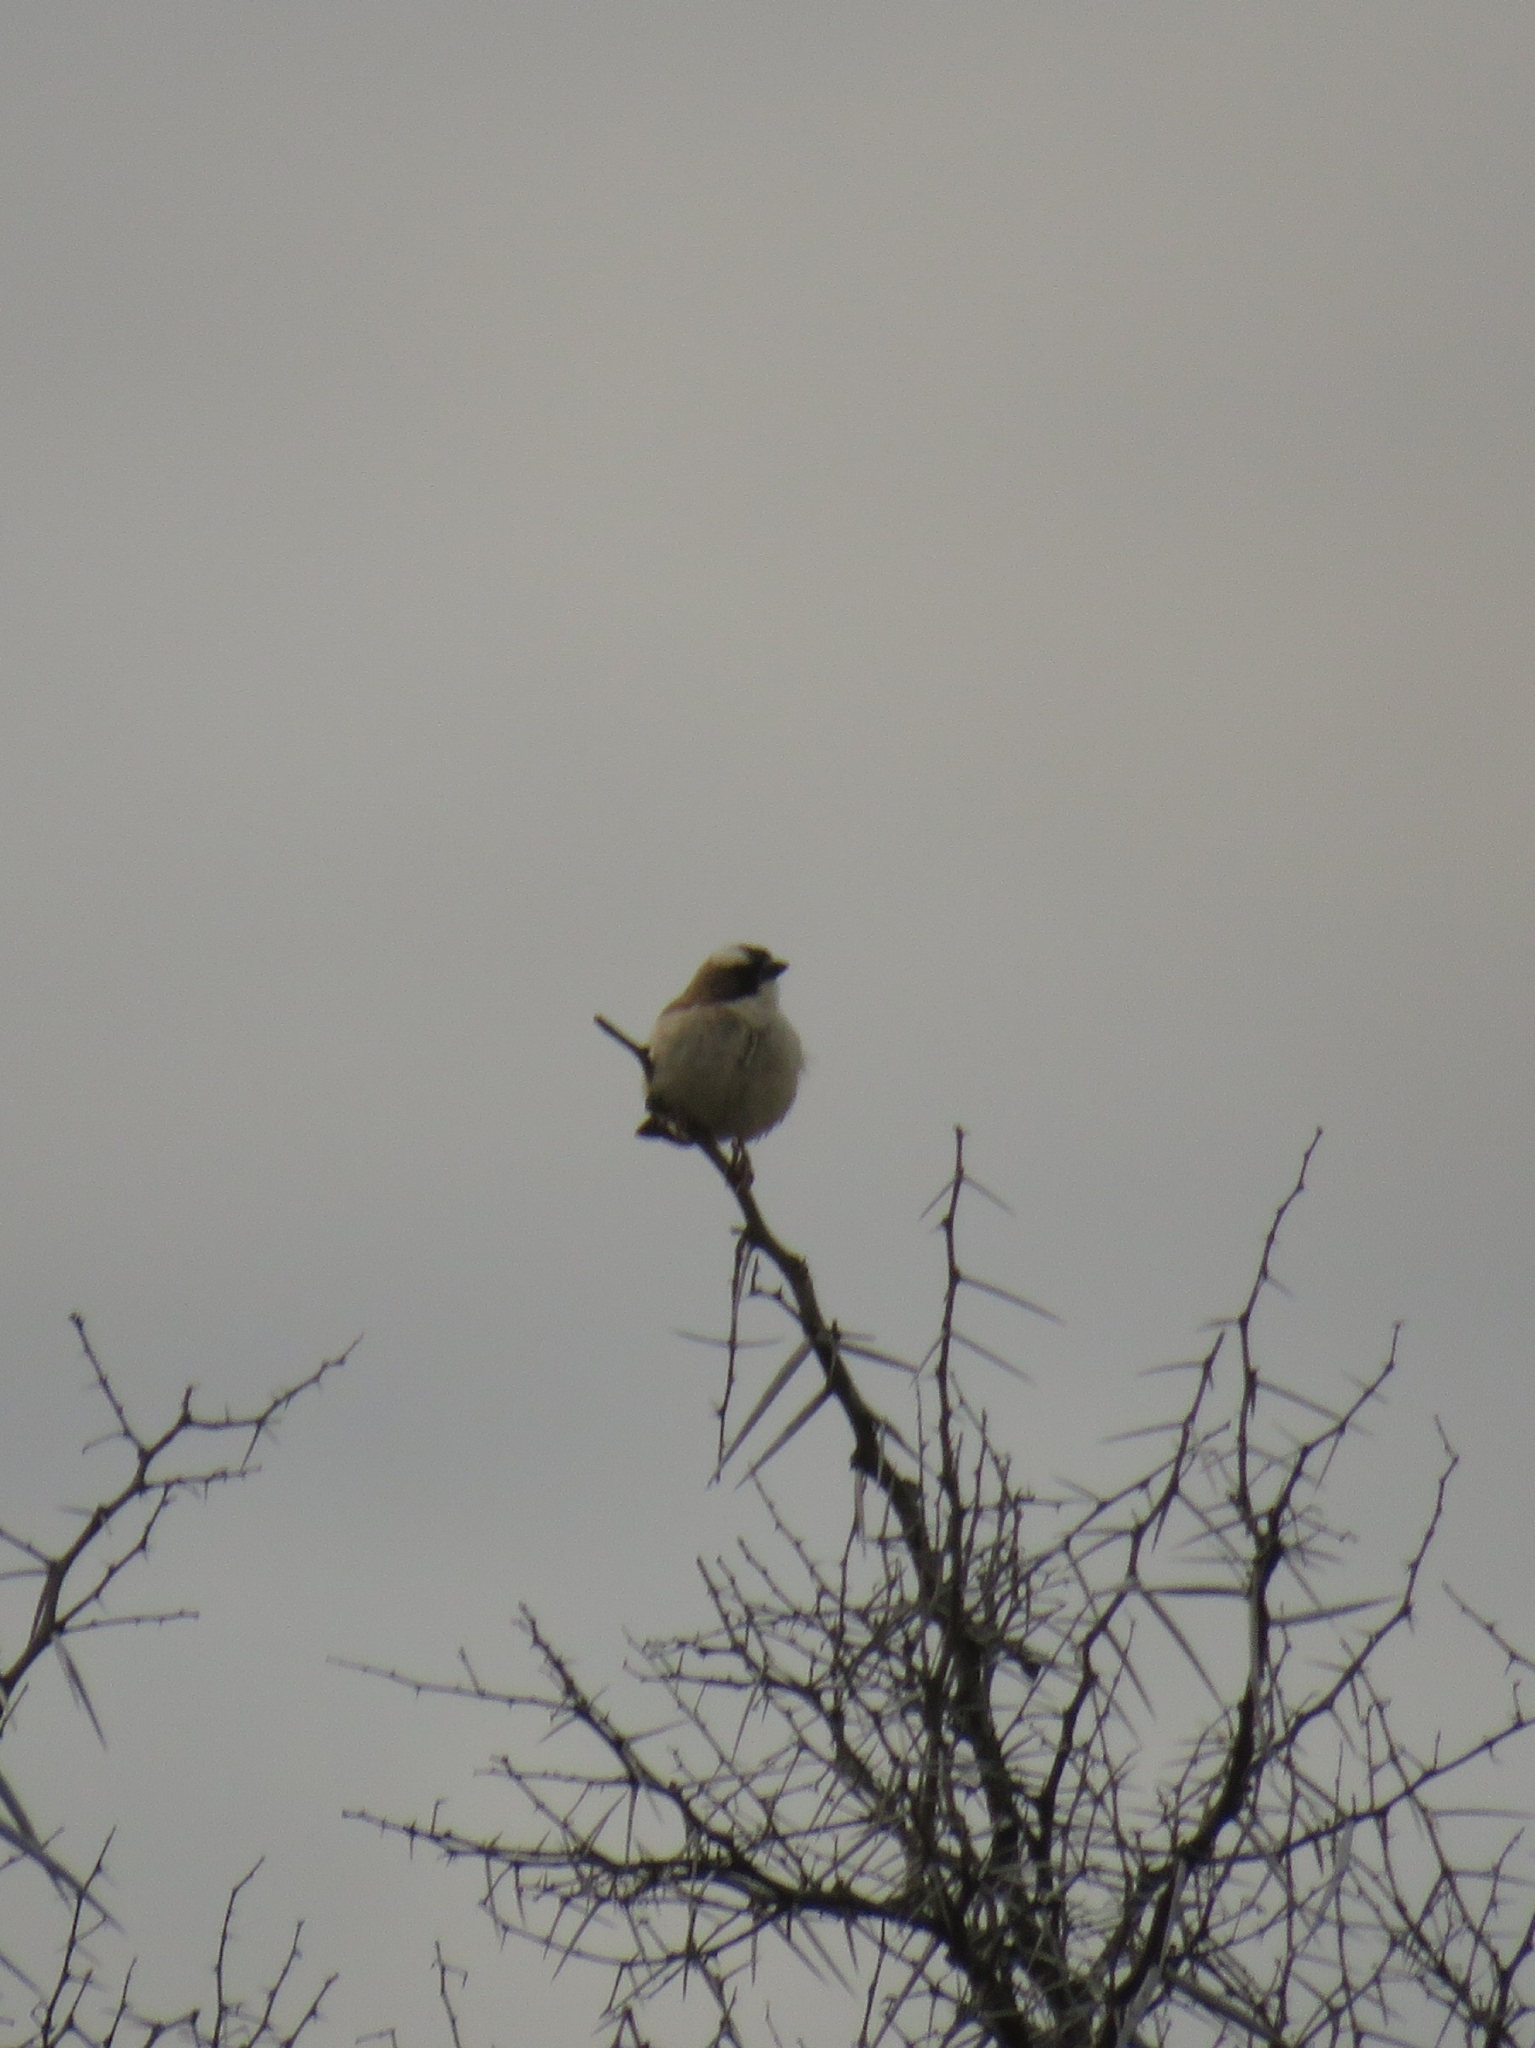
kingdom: Animalia
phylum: Chordata
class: Aves
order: Passeriformes
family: Passeridae
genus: Plocepasser
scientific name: Plocepasser mahali
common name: White-browed sparrow-weaver
